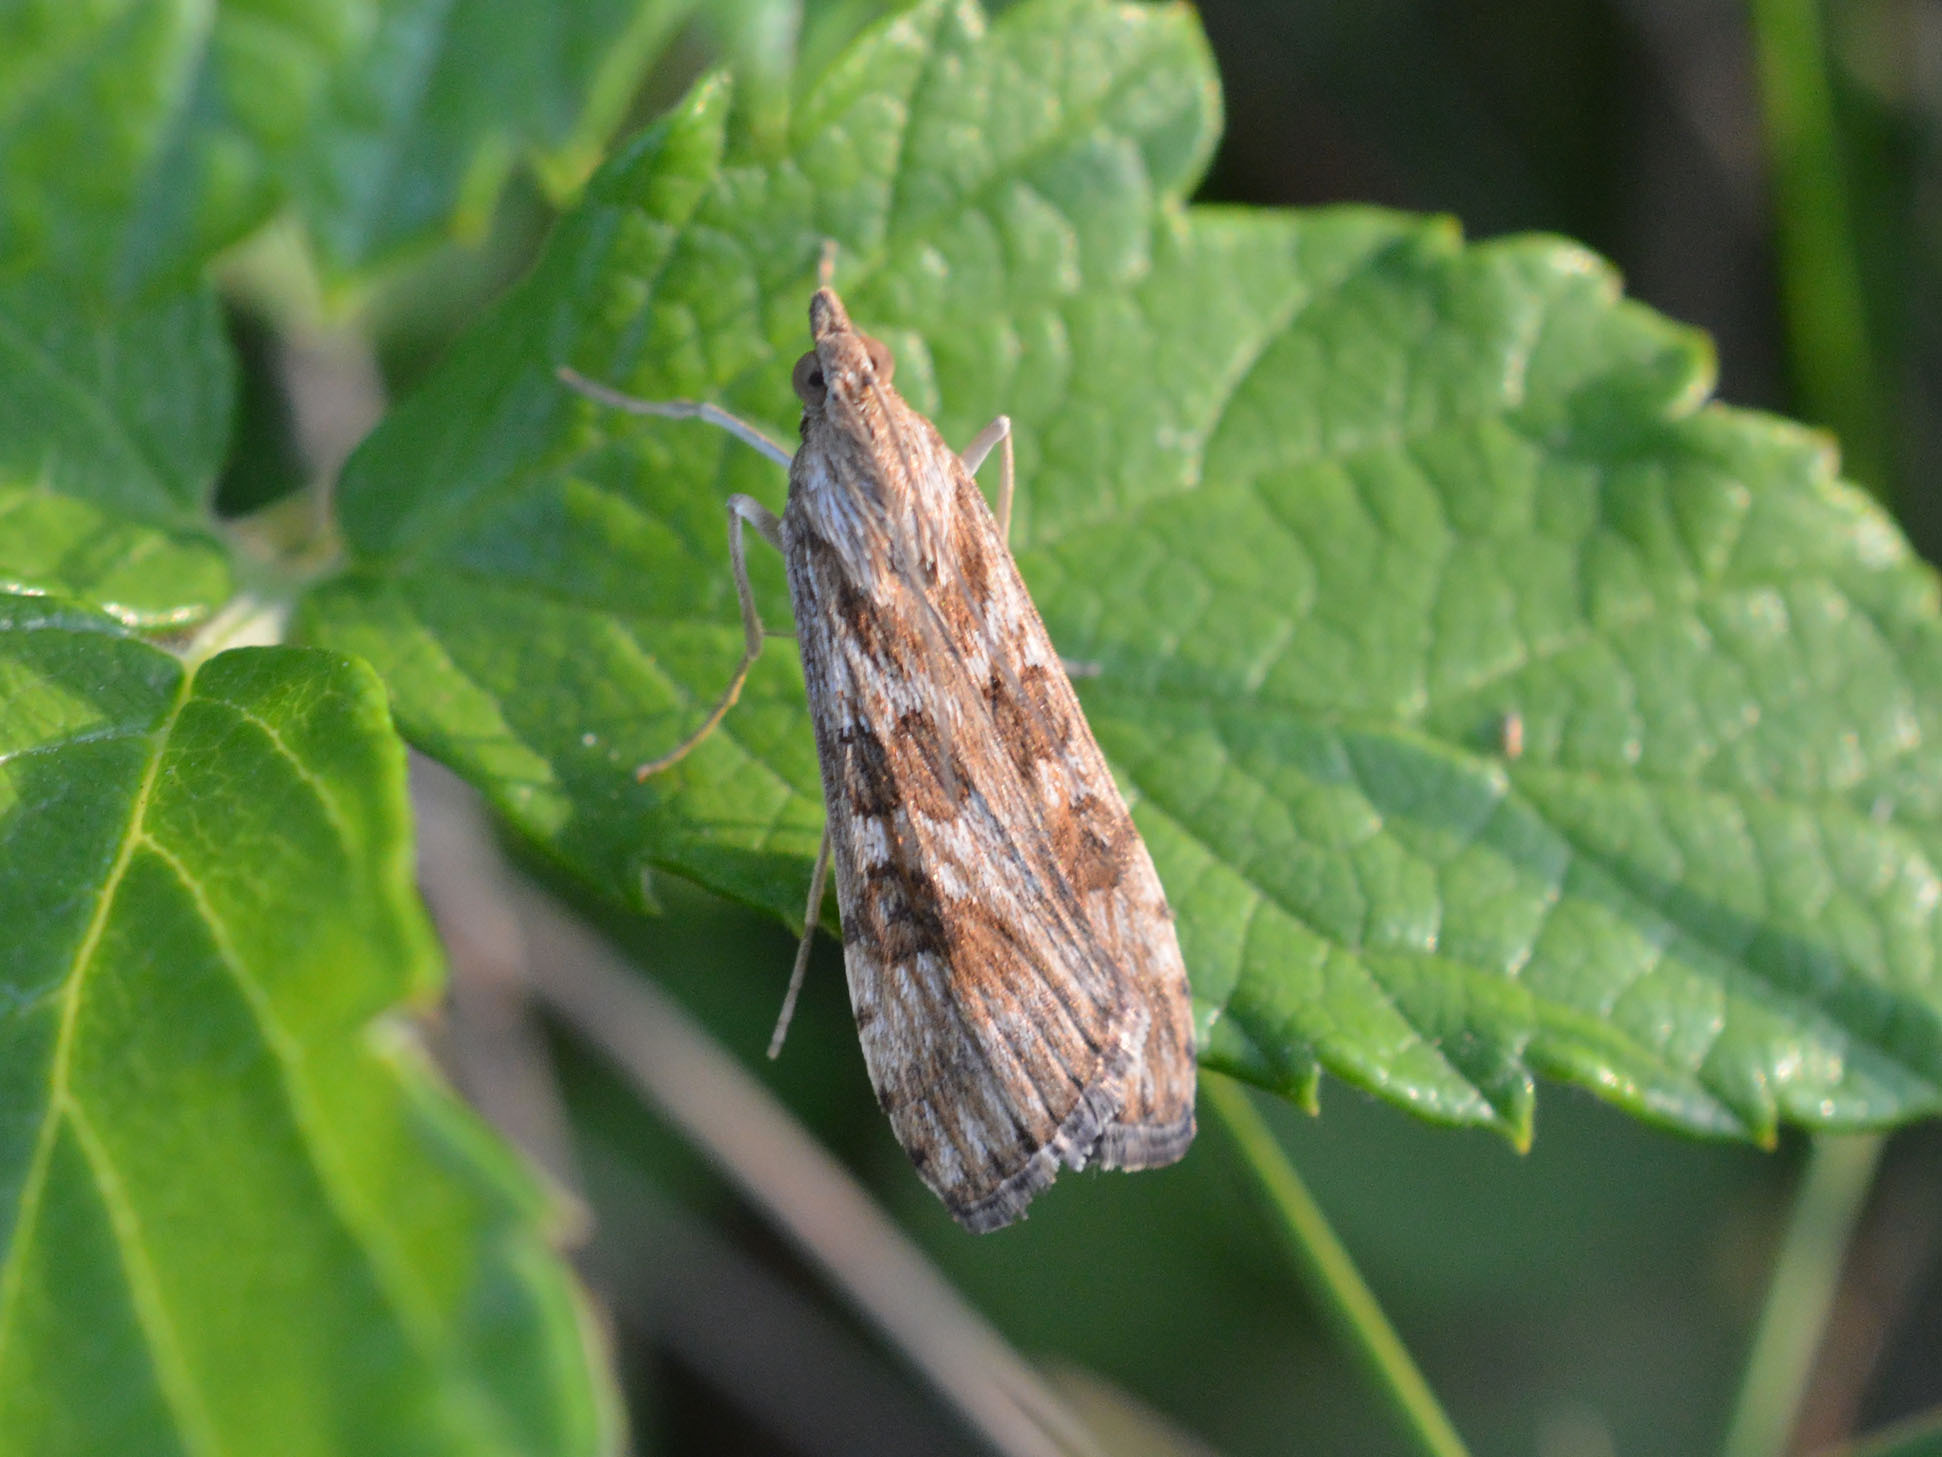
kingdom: Animalia
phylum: Arthropoda
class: Insecta
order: Lepidoptera
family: Crambidae
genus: Nomophila
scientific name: Nomophila noctuella
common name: Rush veneer
